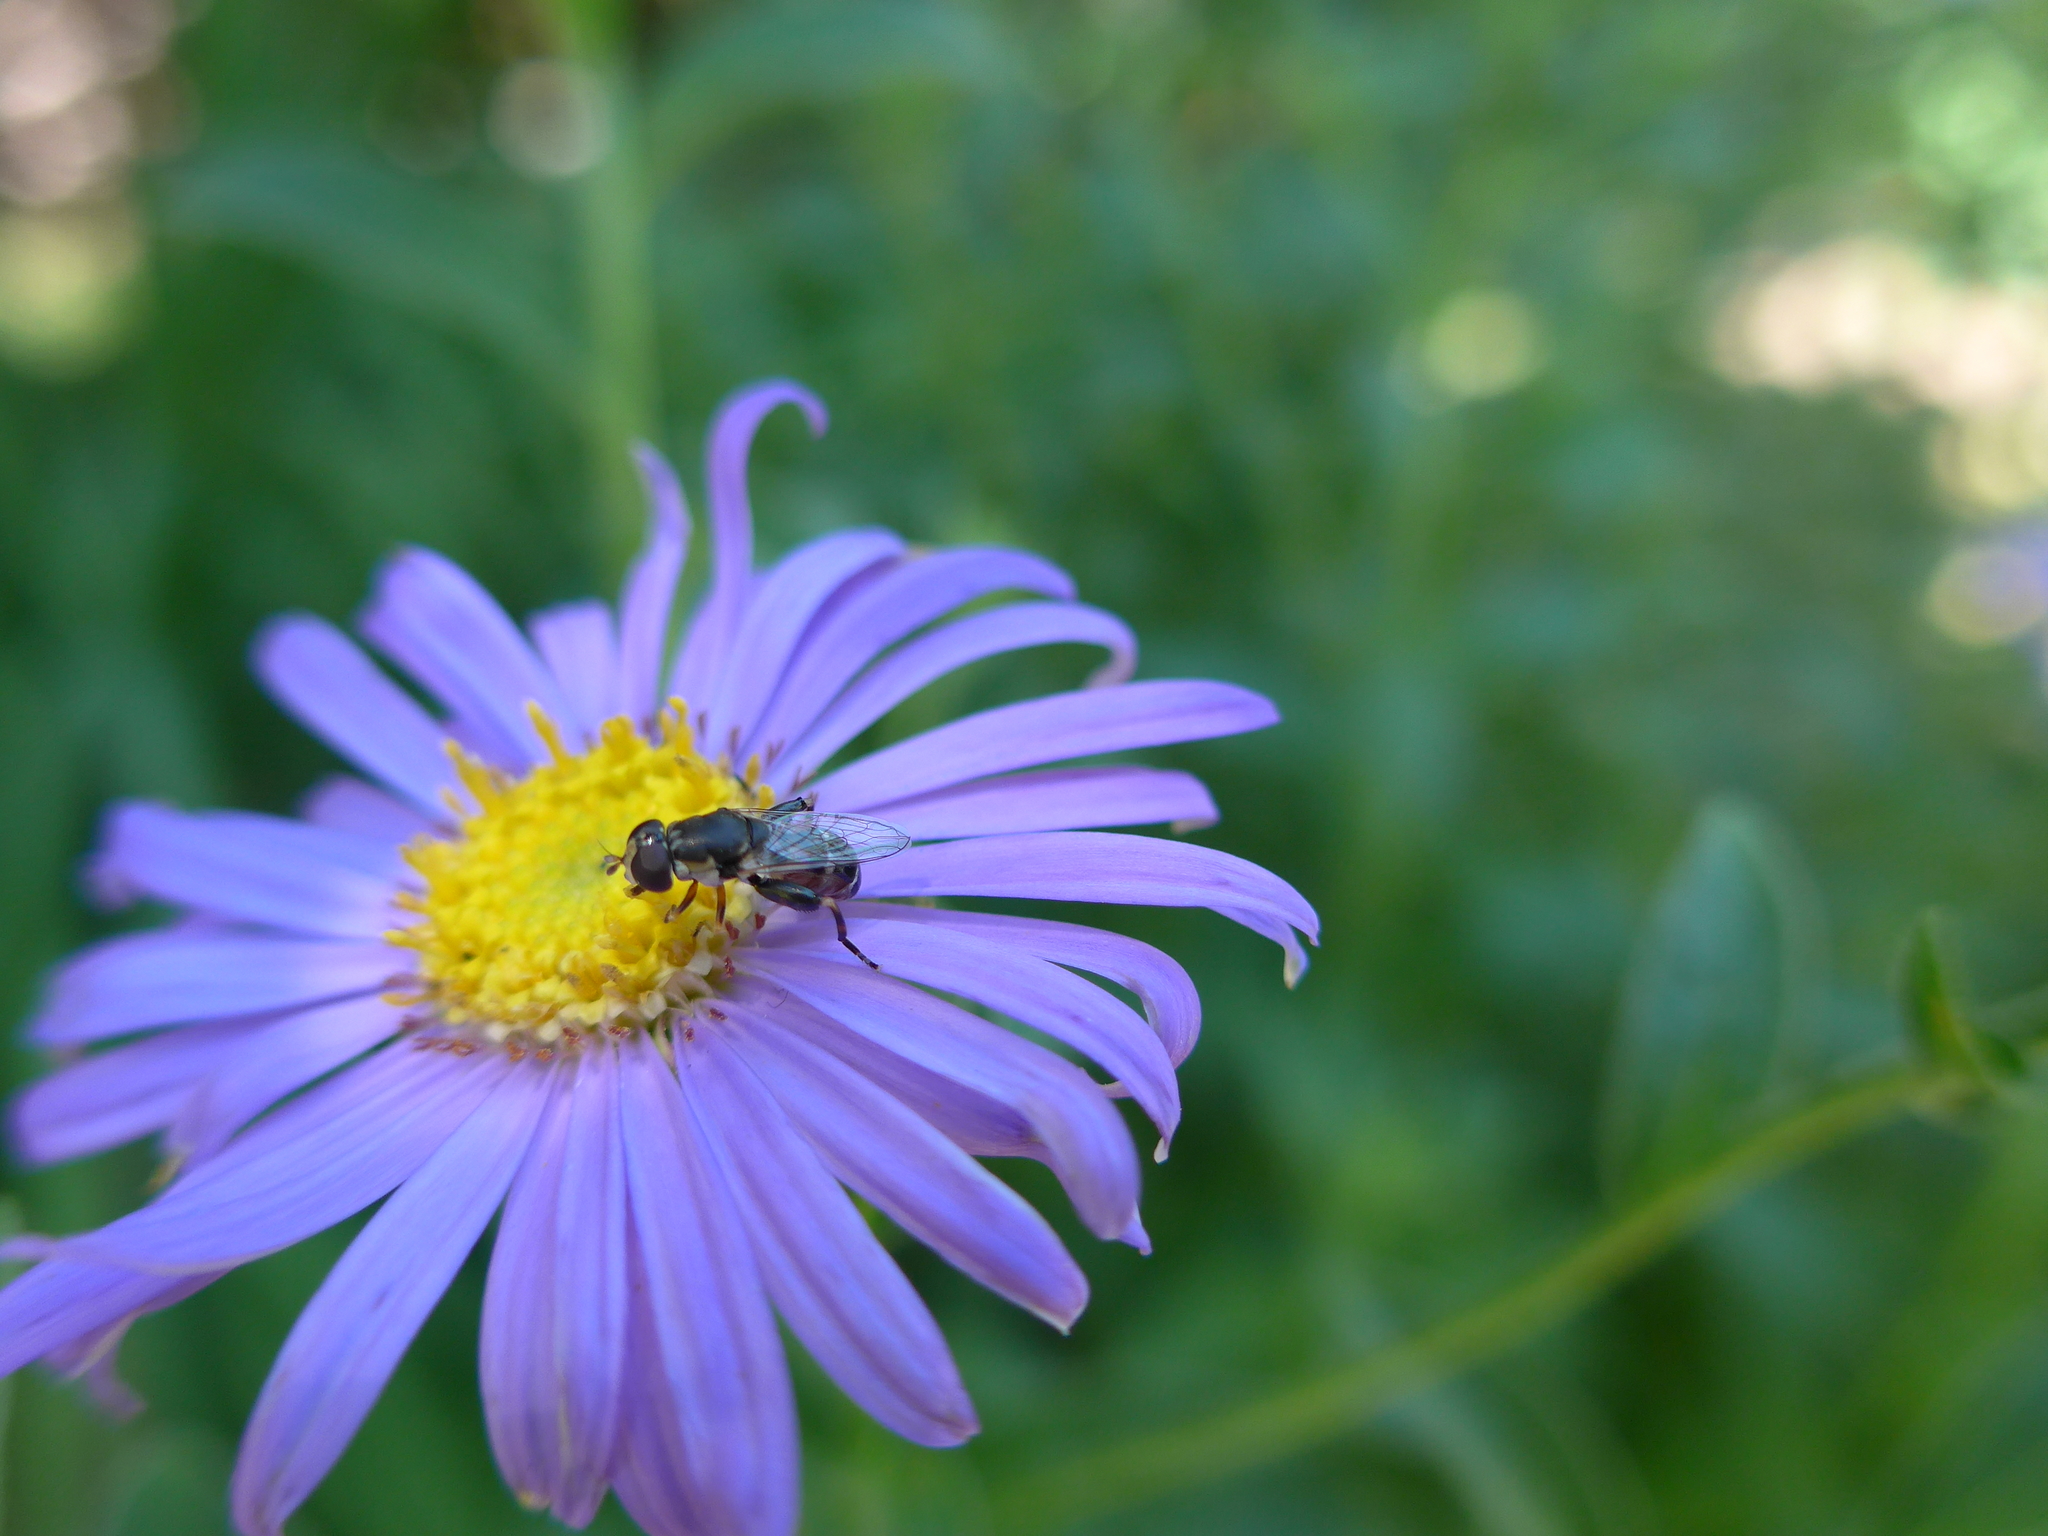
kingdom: Animalia
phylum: Arthropoda
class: Insecta
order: Diptera
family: Syrphidae
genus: Syritta
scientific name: Syritta pipiens
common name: Hover fly
